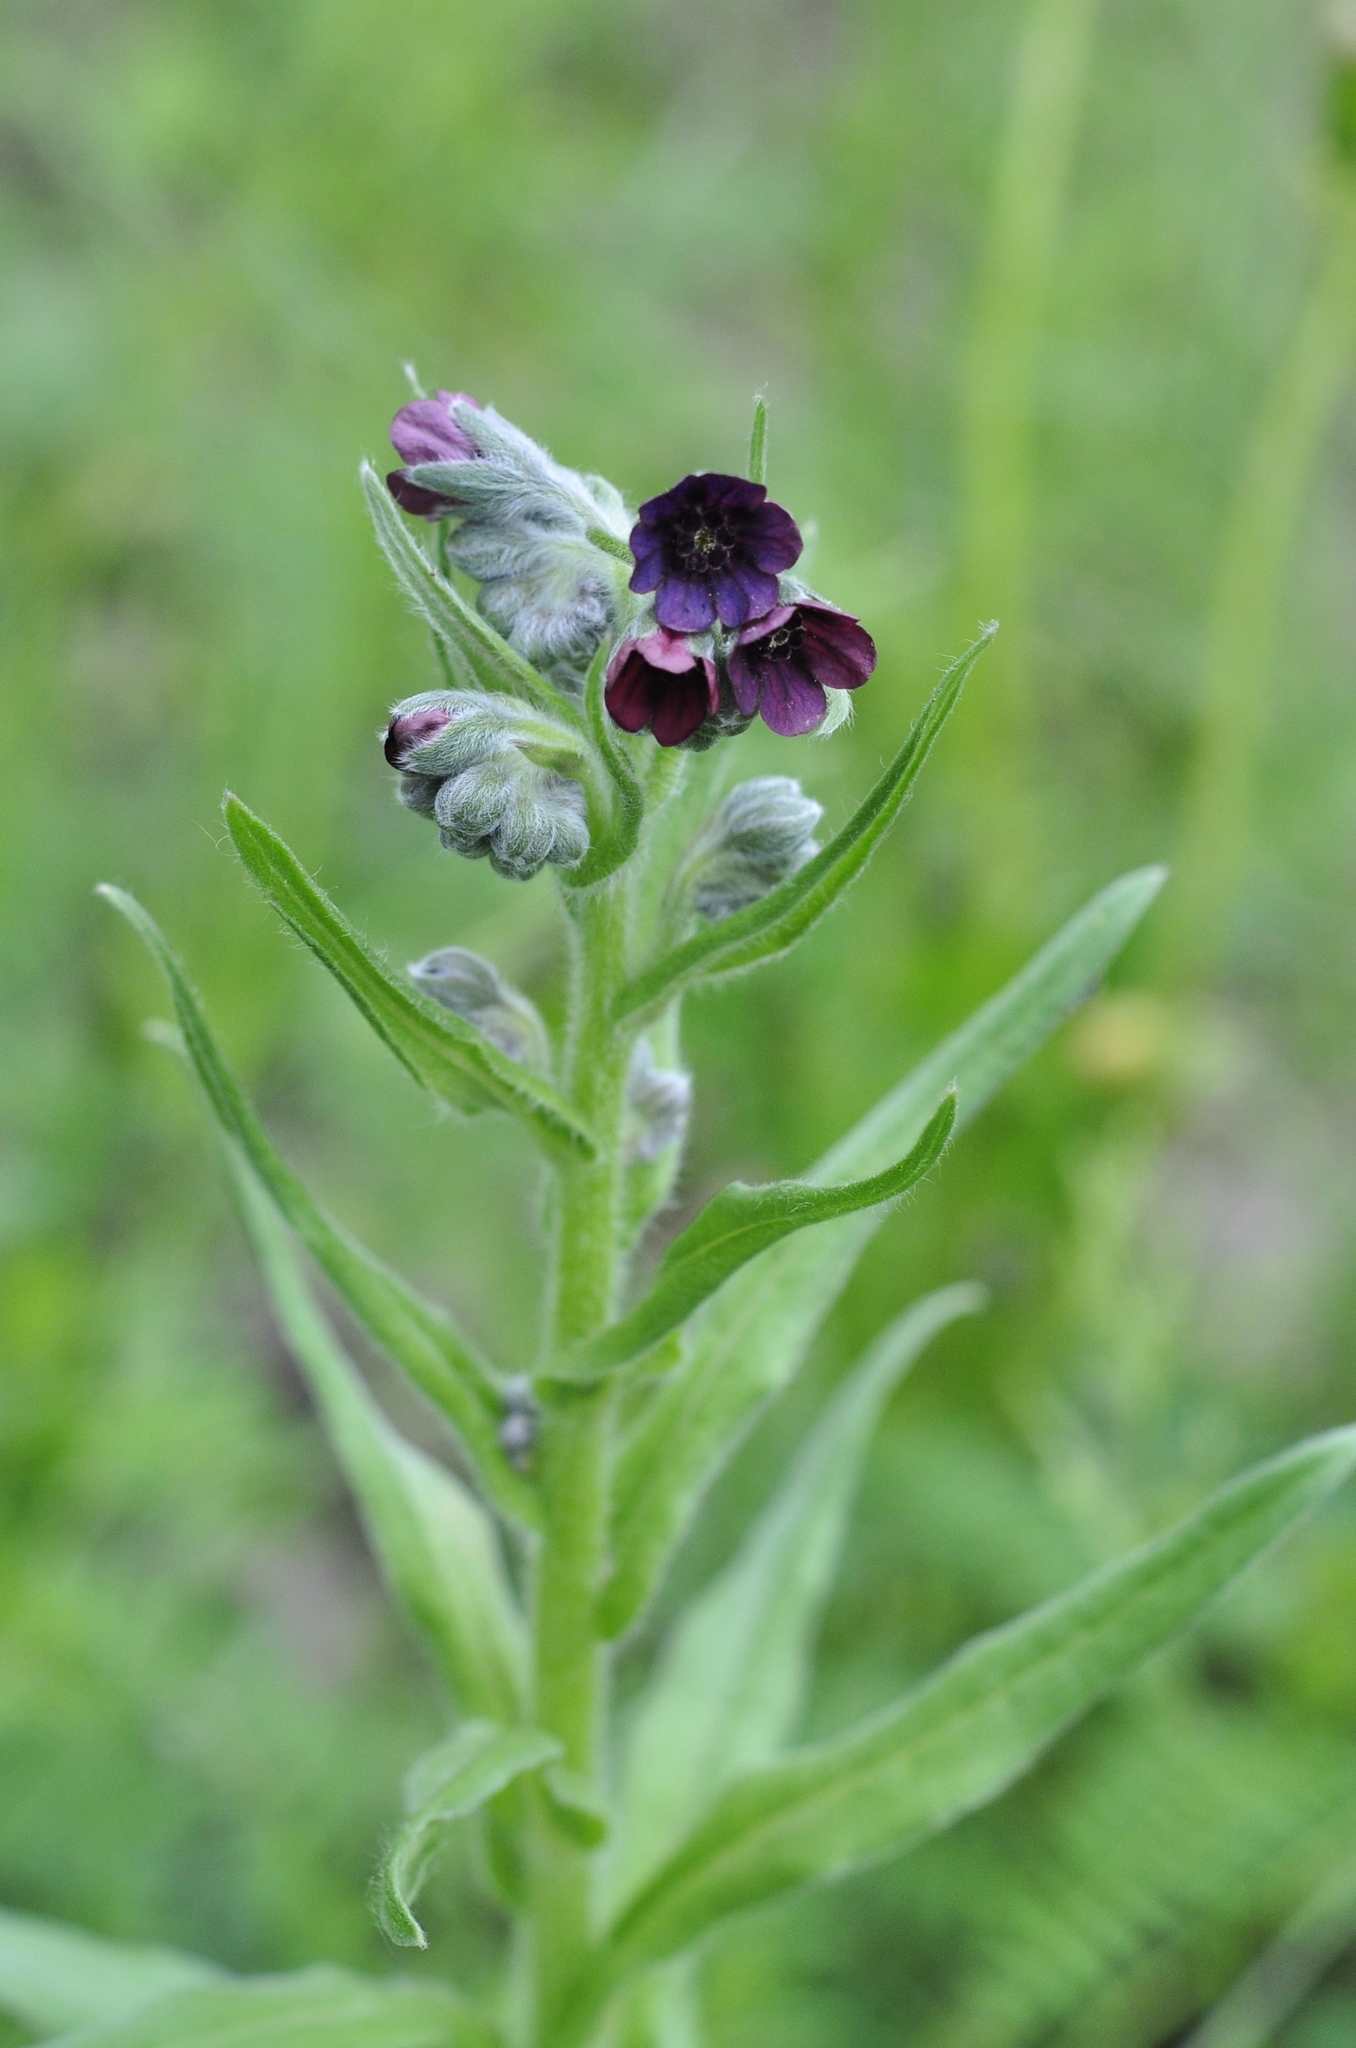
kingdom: Plantae
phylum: Tracheophyta
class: Magnoliopsida
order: Boraginales
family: Boraginaceae
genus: Cynoglossum
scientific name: Cynoglossum officinale
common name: Hound's-tongue
